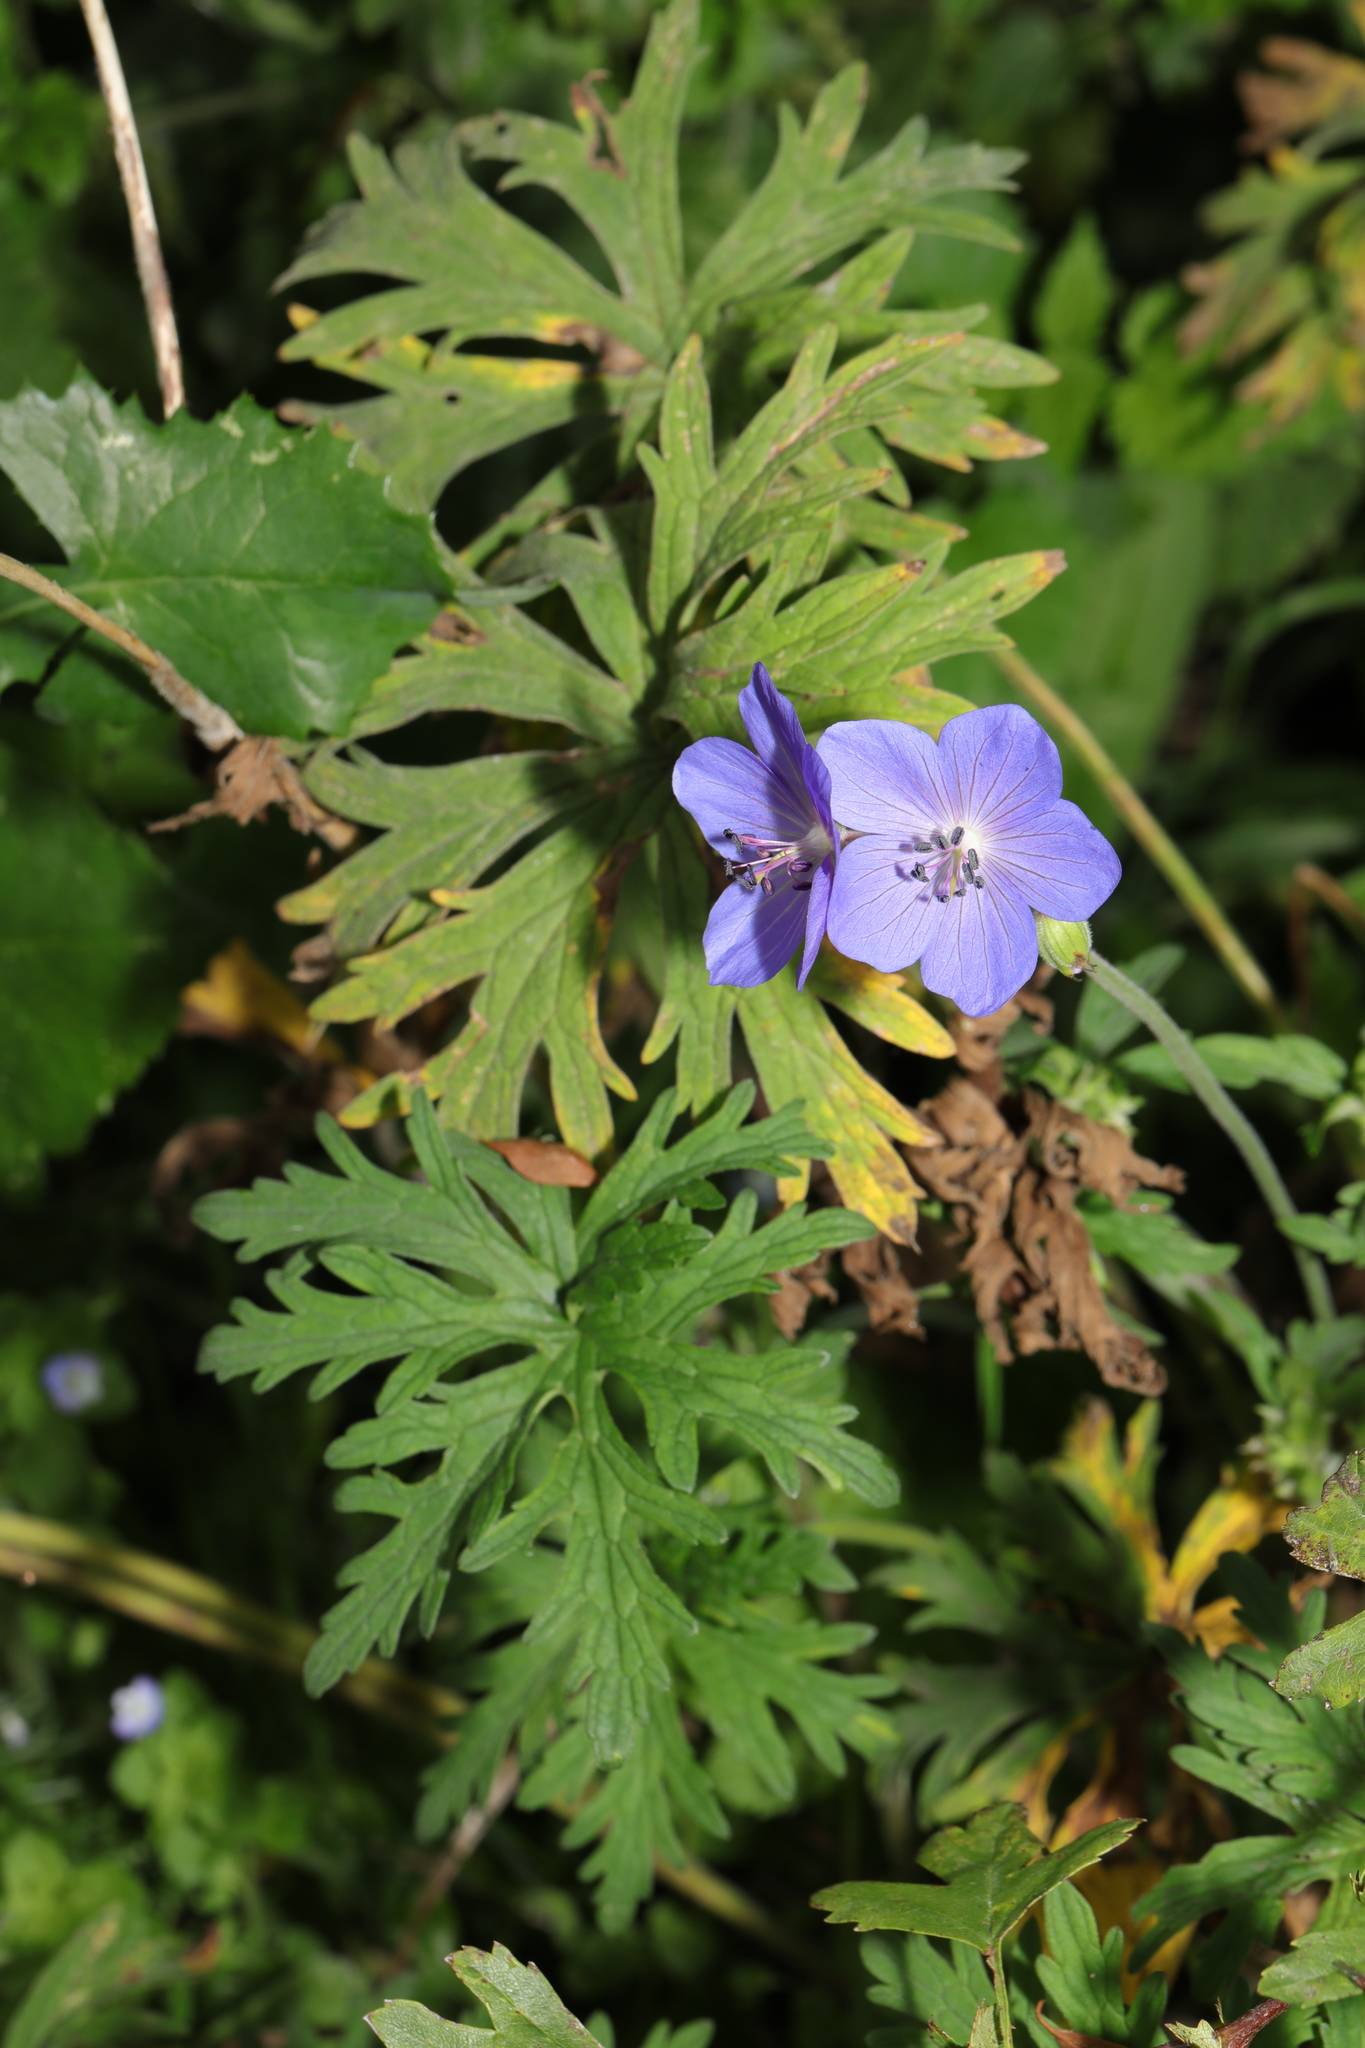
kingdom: Plantae
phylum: Tracheophyta
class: Magnoliopsida
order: Geraniales
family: Geraniaceae
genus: Geranium
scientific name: Geranium pratense
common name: Meadow crane's-bill
